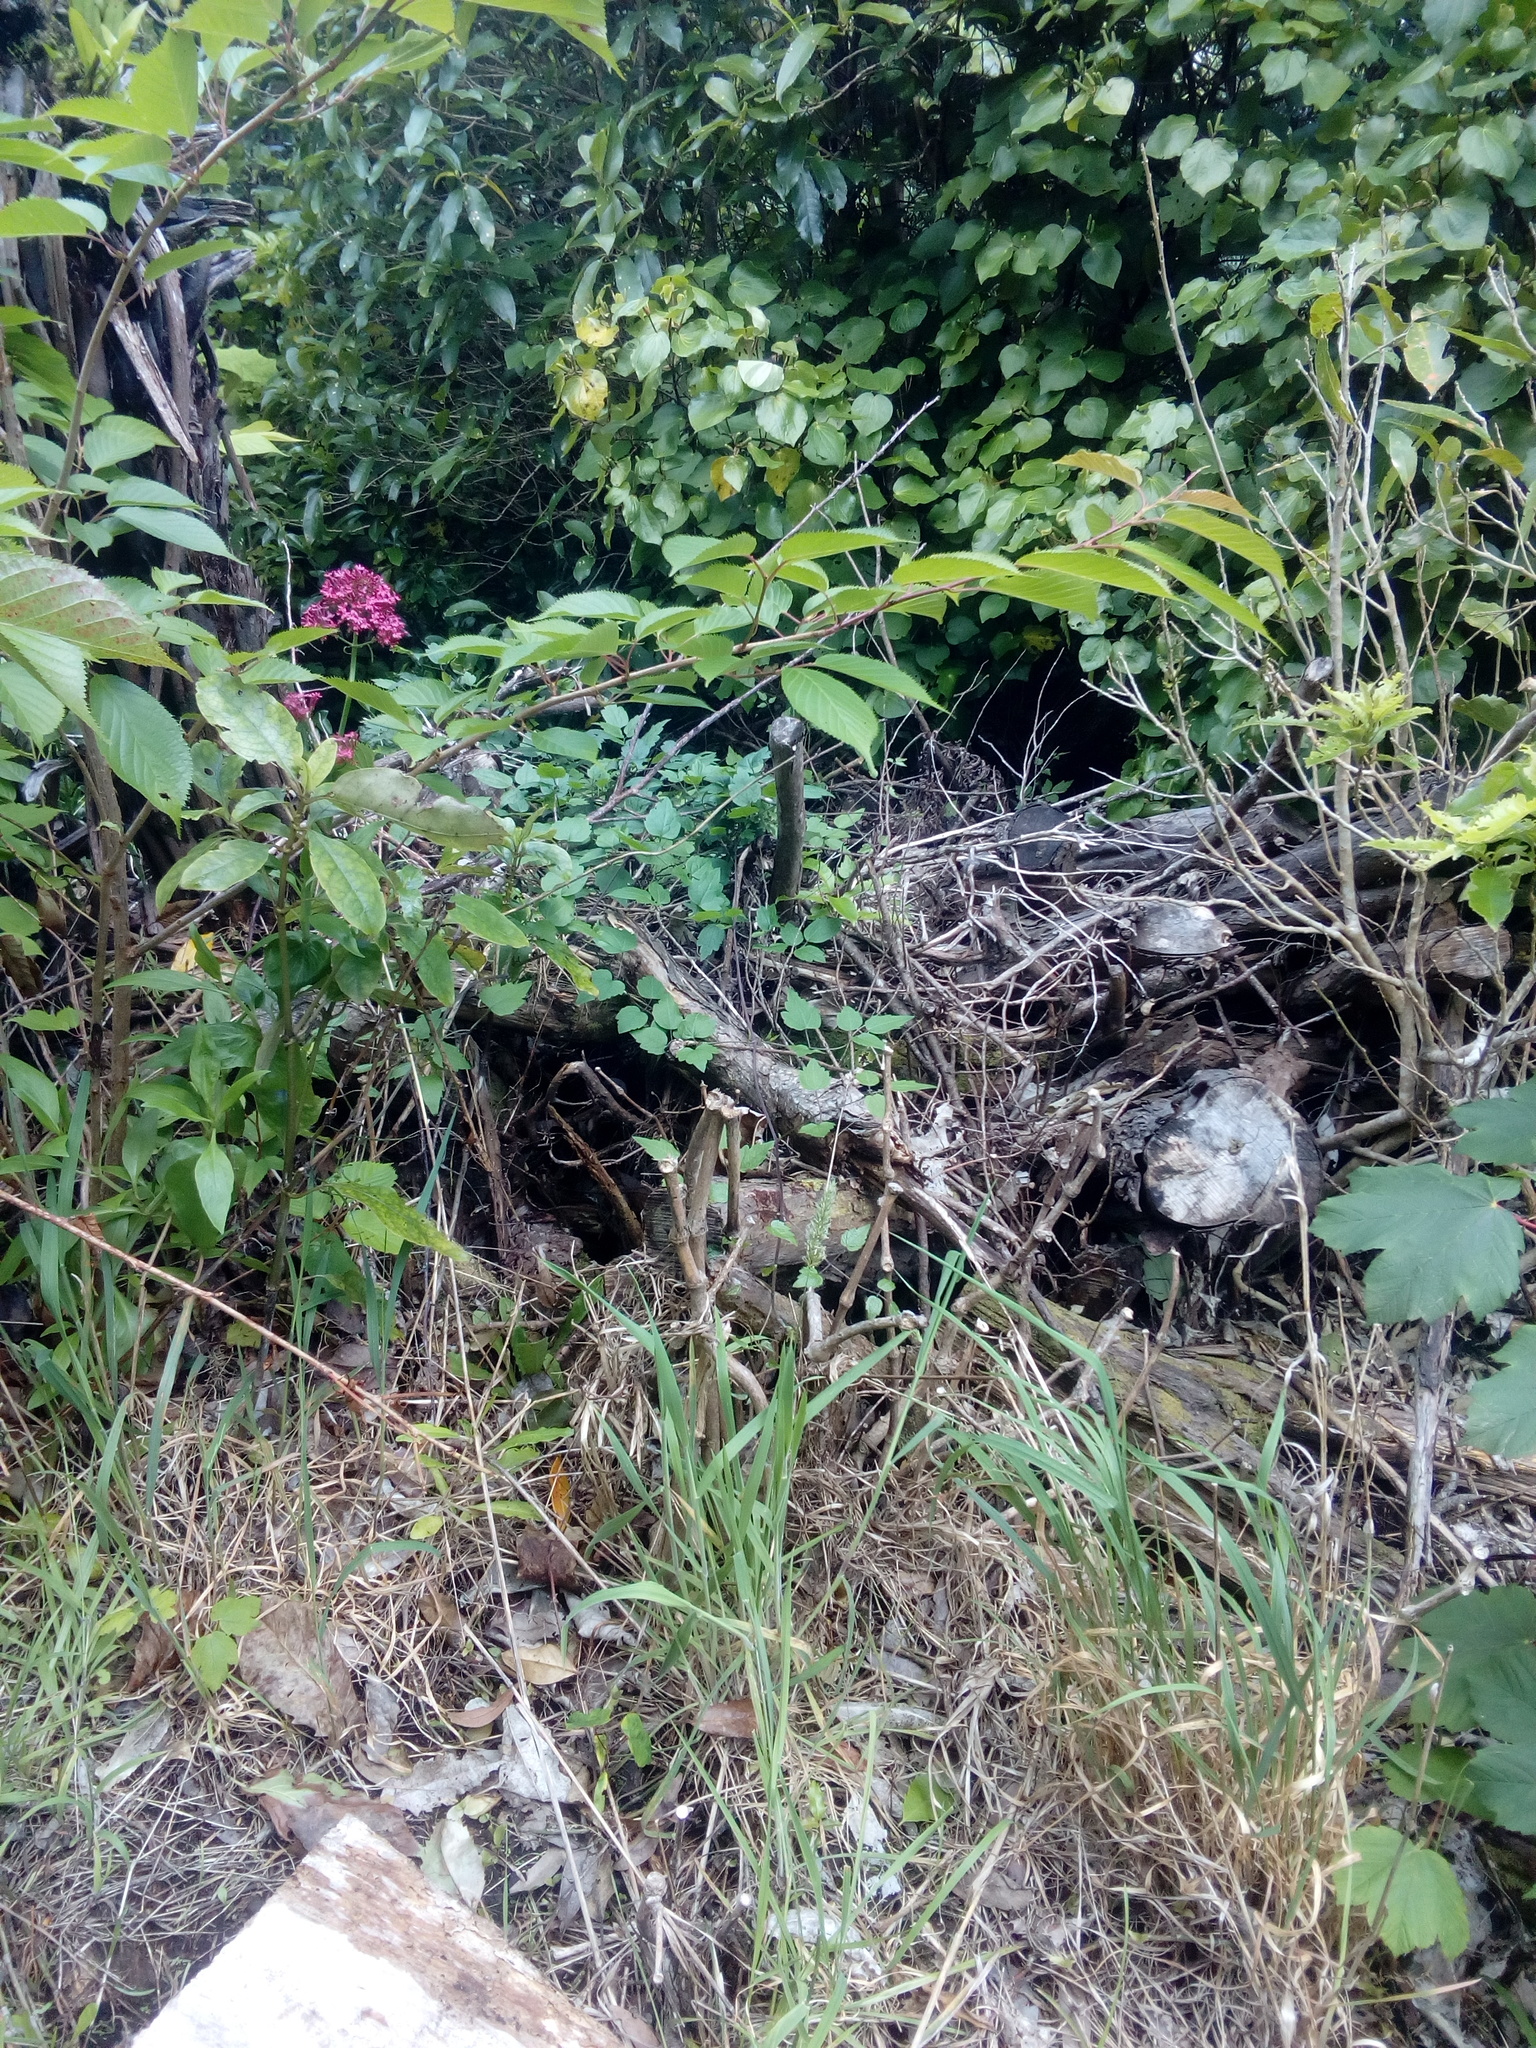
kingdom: Plantae
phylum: Tracheophyta
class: Magnoliopsida
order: Ranunculales
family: Ranunculaceae
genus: Clematis
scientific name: Clematis vitalba
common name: Evergreen clematis
